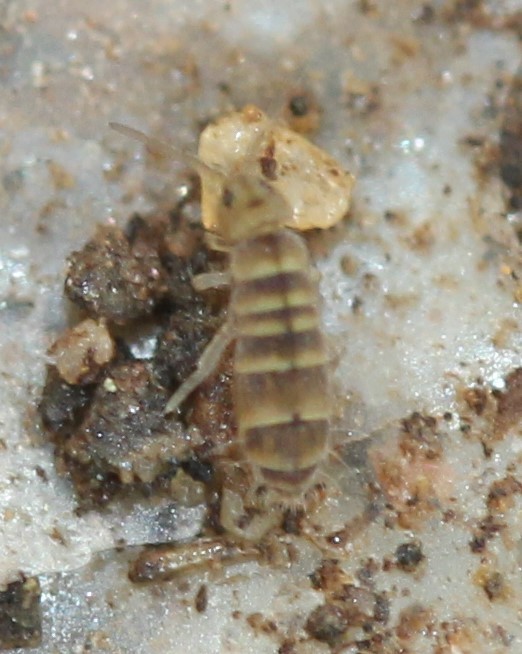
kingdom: Animalia
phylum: Arthropoda
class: Collembola
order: Entomobryomorpha
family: Isotomidae
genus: Isotomurus
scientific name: Isotomurus bimus
